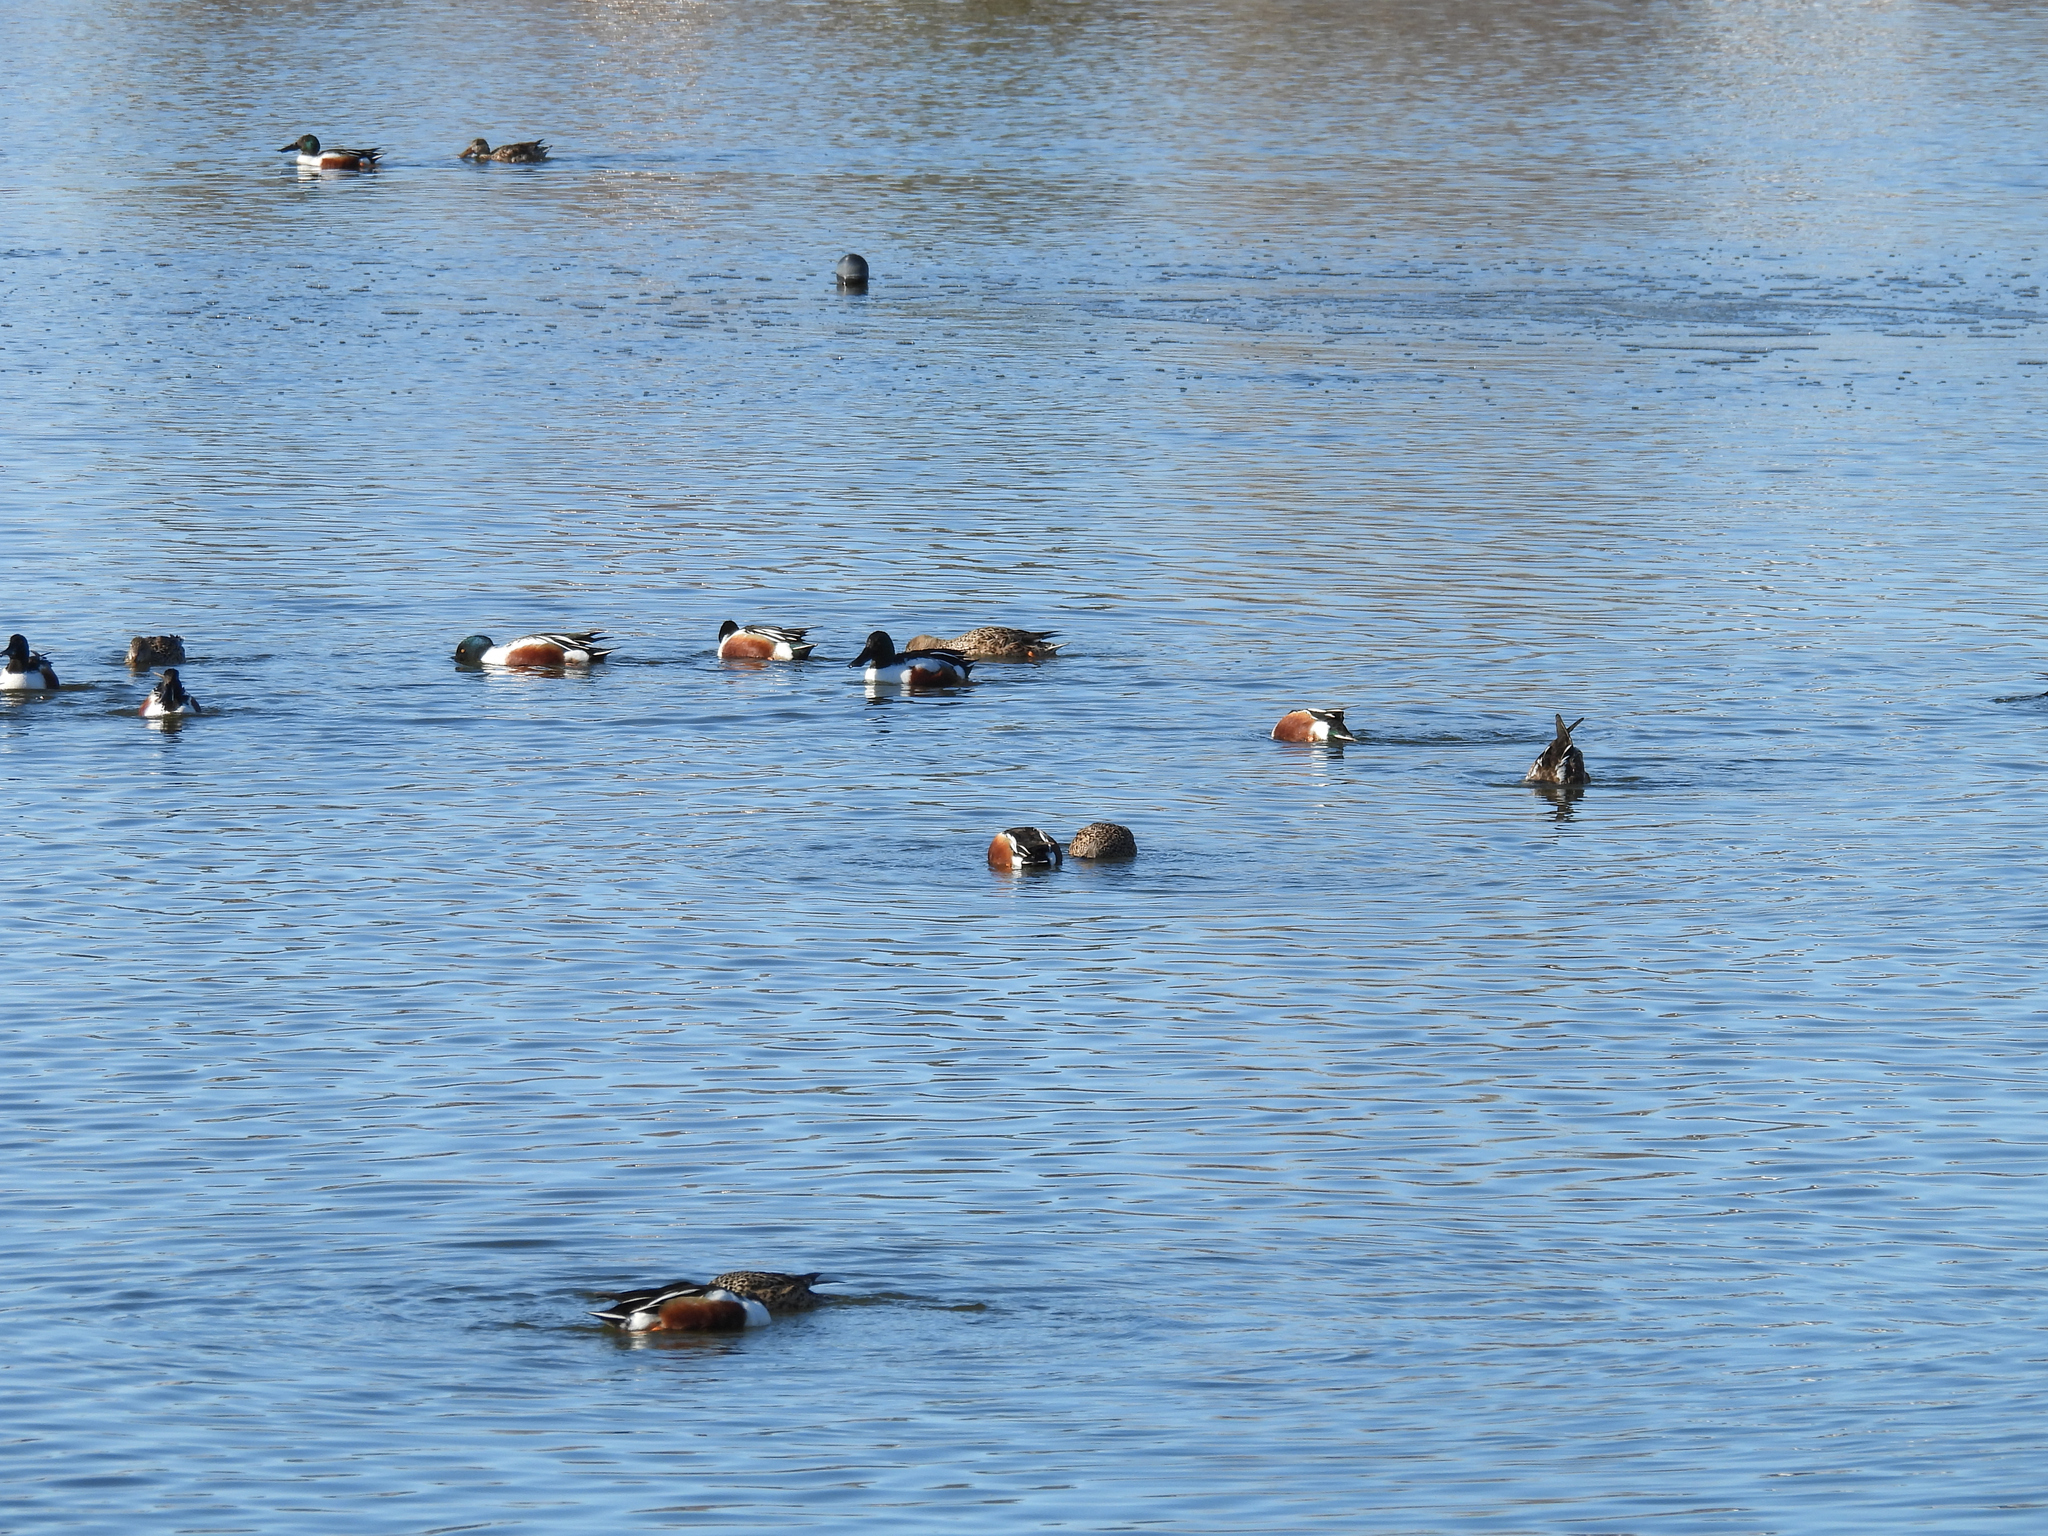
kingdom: Animalia
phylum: Chordata
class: Aves
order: Anseriformes
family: Anatidae
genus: Spatula
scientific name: Spatula clypeata
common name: Northern shoveler
